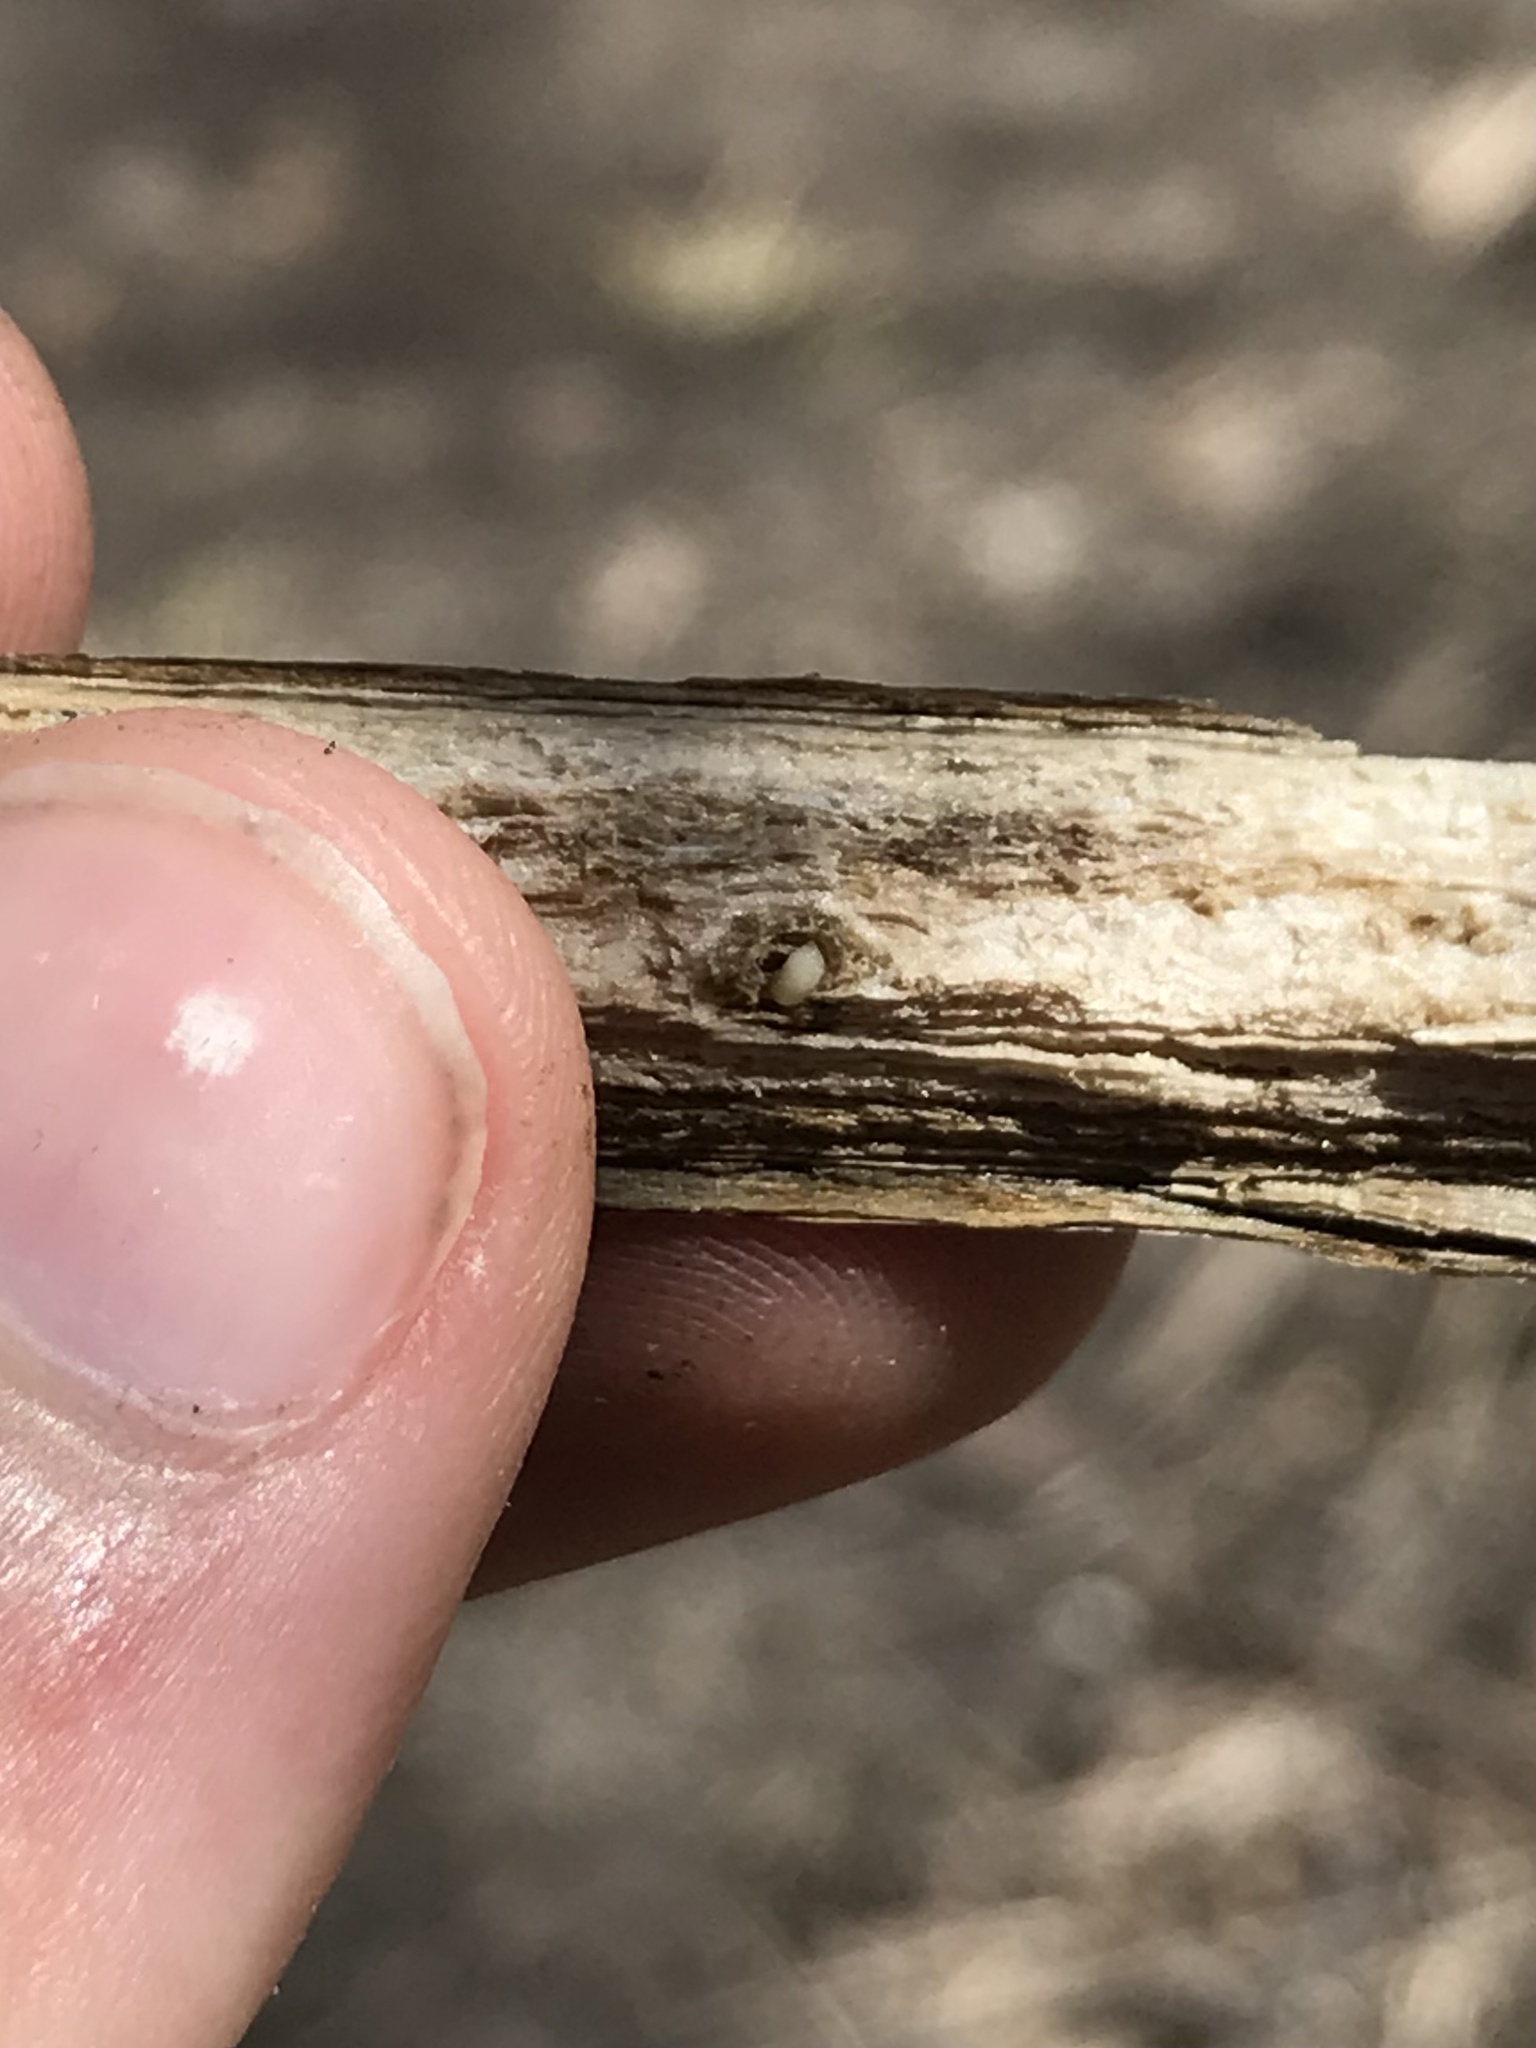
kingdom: Animalia
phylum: Arthropoda
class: Insecta
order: Hymenoptera
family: Cynipidae
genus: Antistrophus
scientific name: Antistrophus
